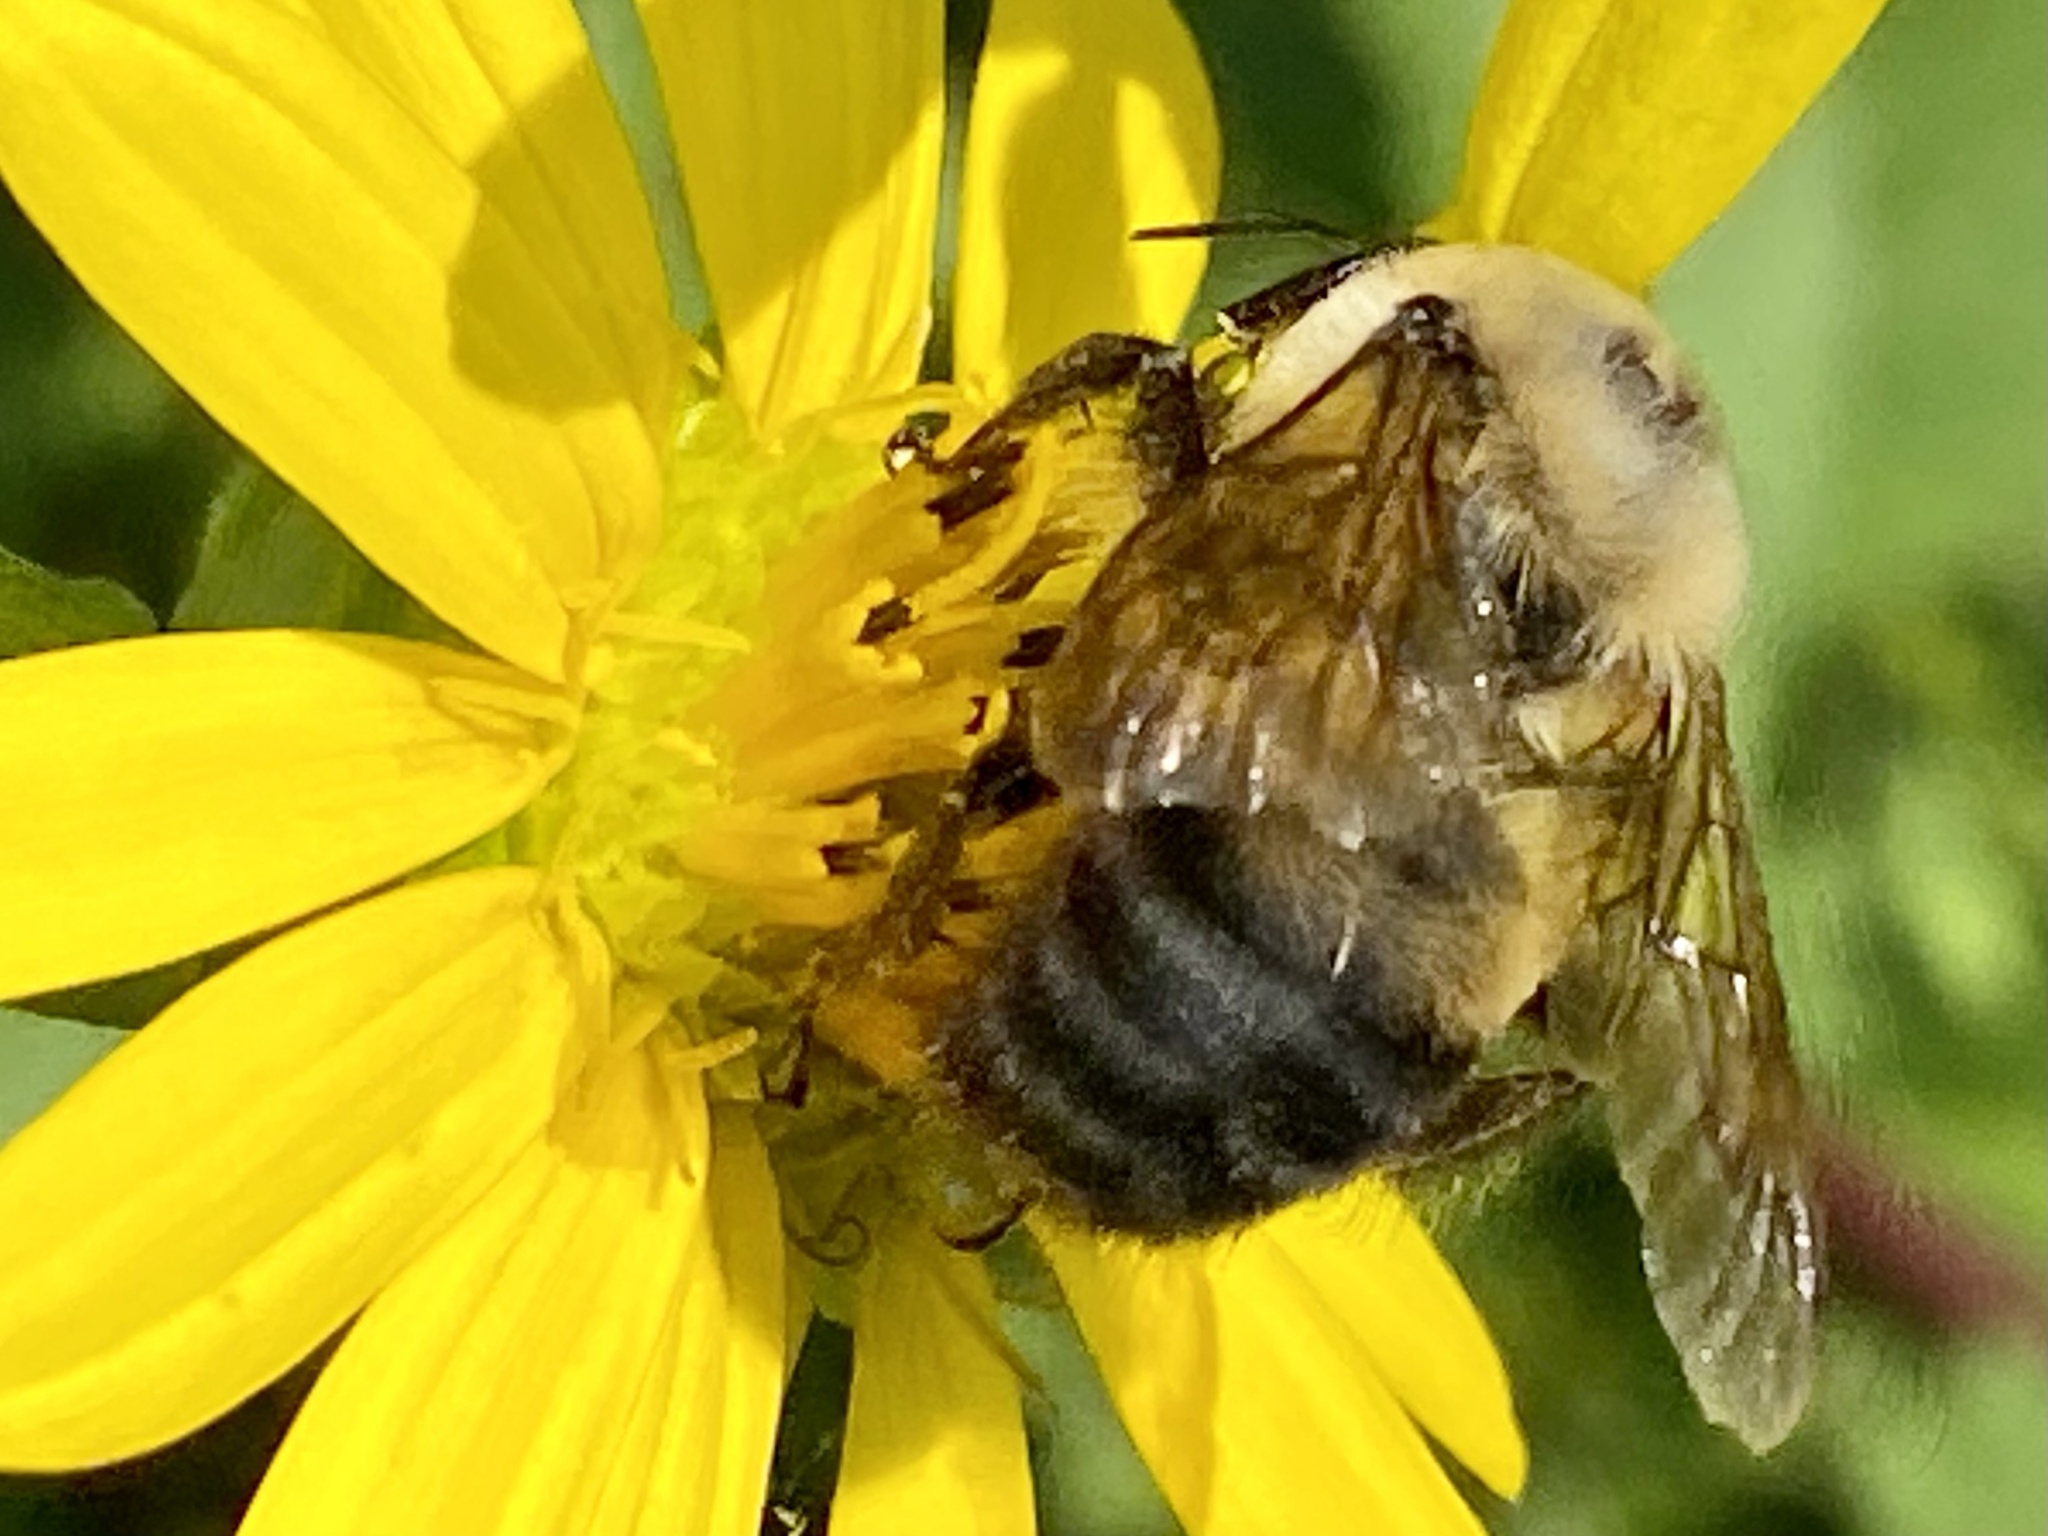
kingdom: Animalia
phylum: Arthropoda
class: Insecta
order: Hymenoptera
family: Apidae
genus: Bombus
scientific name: Bombus griseocollis
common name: Brown-belted bumble bee
